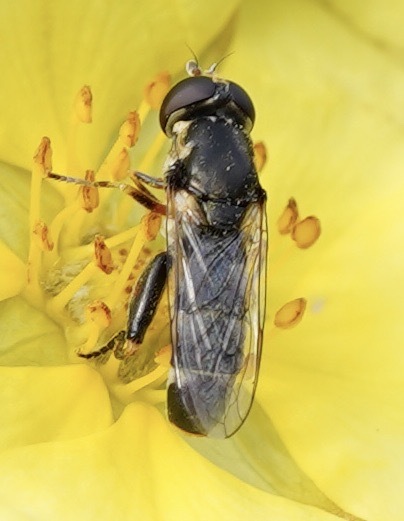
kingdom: Animalia
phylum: Arthropoda
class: Insecta
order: Diptera
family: Syrphidae
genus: Syritta
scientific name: Syritta pipiens
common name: Hover fly
